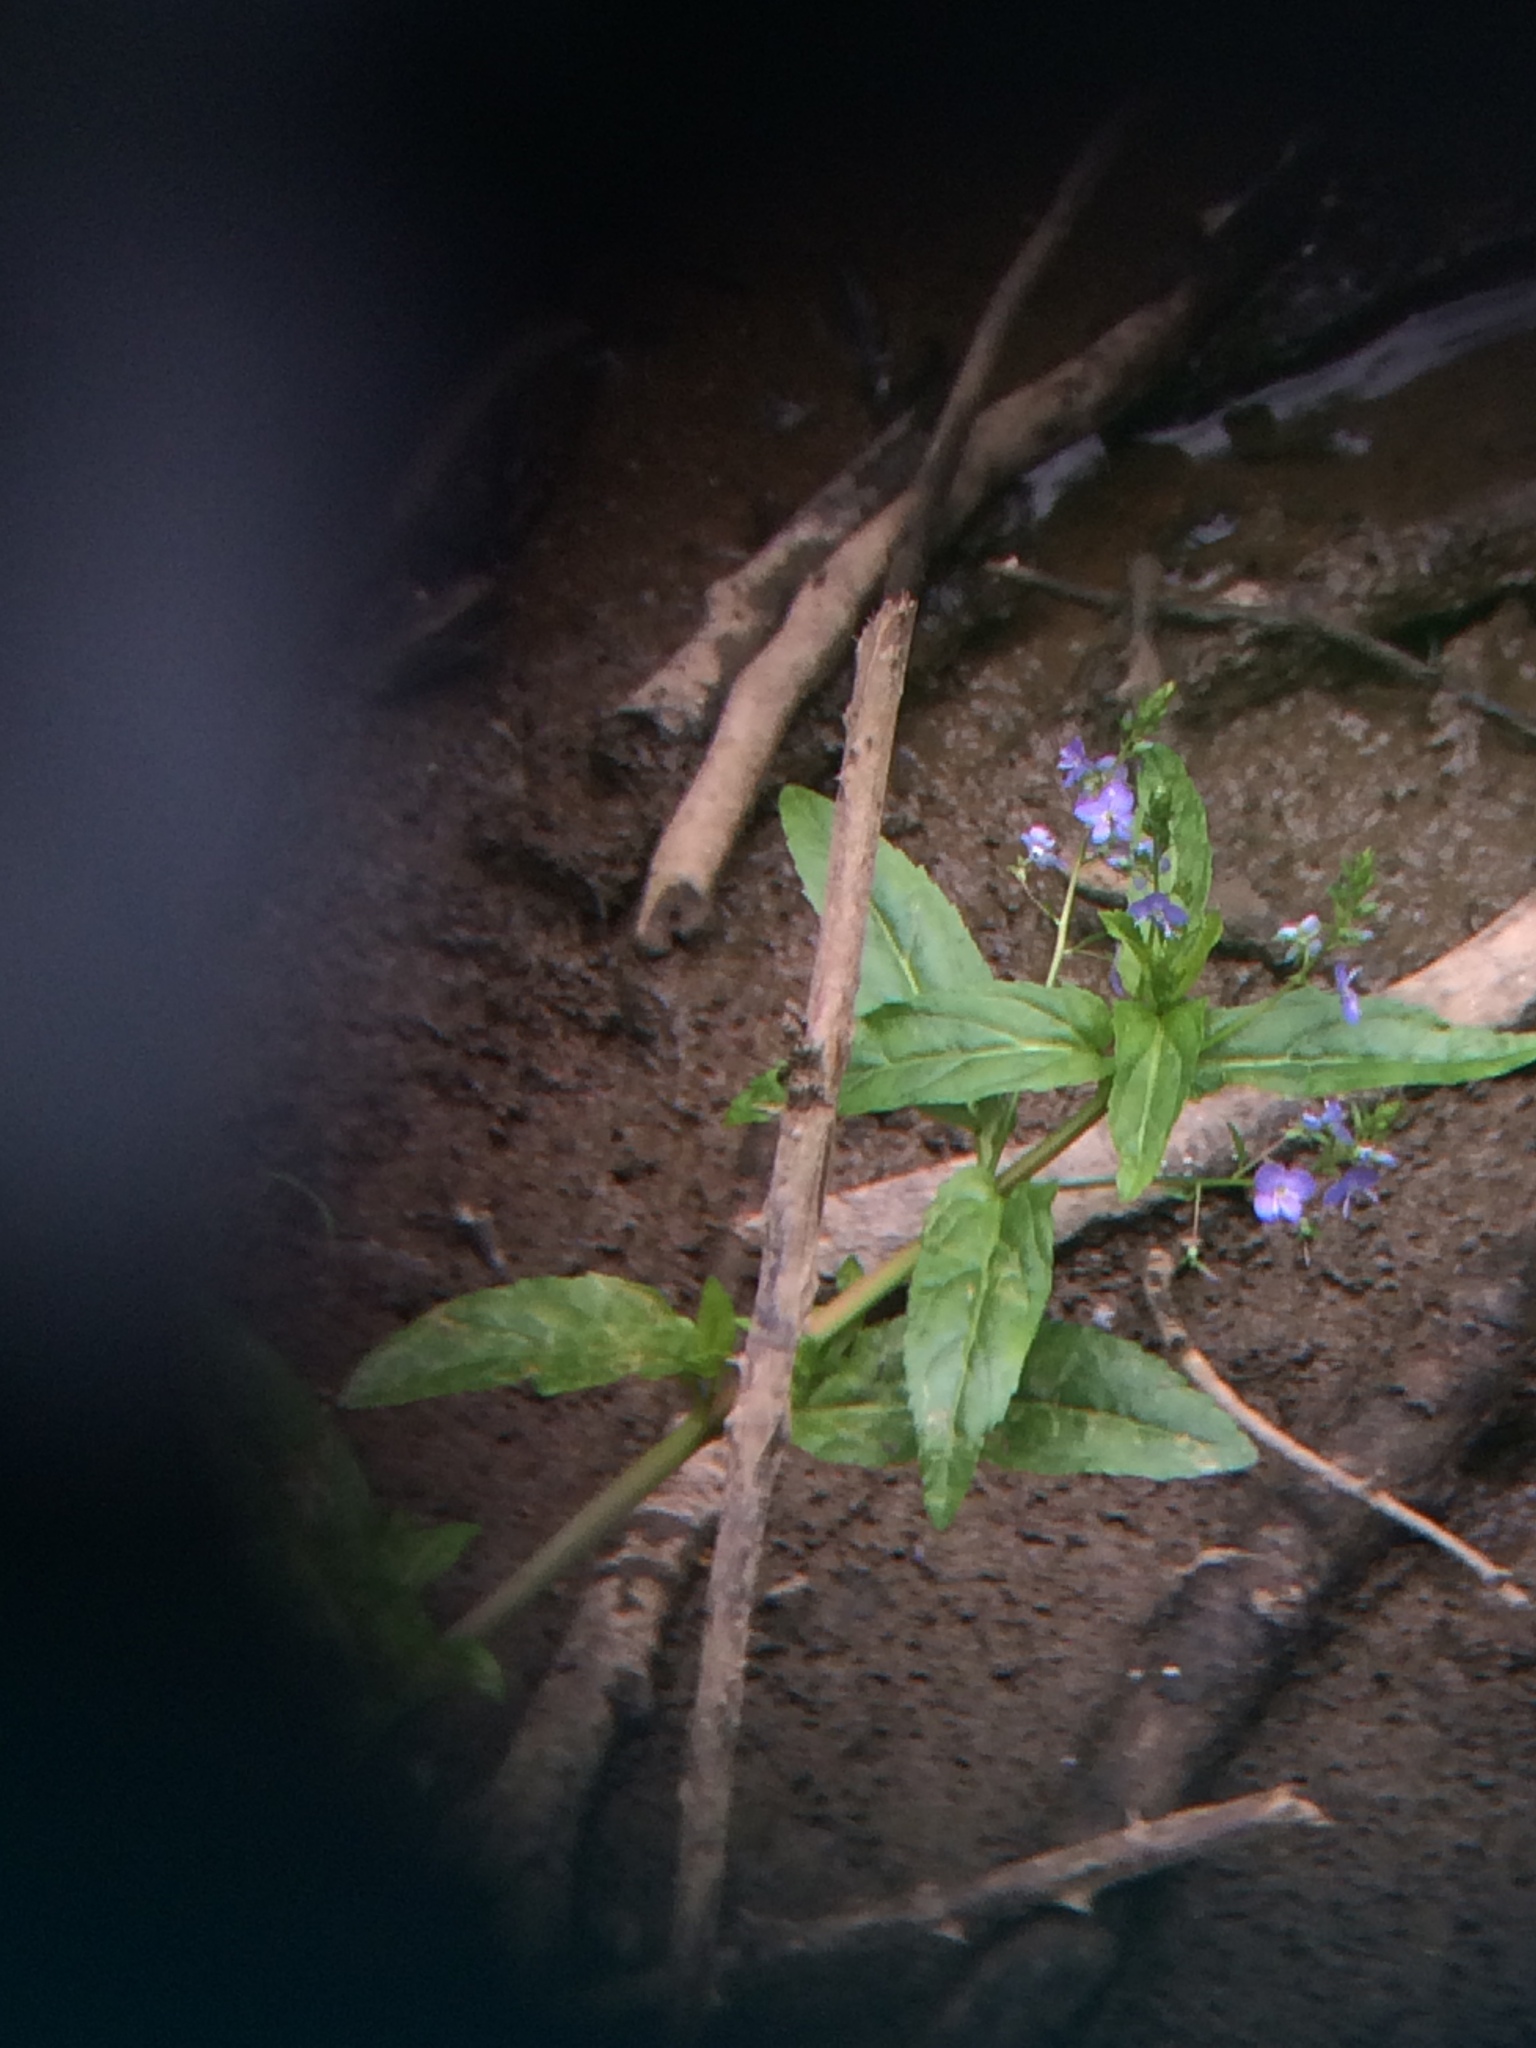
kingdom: Plantae
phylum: Tracheophyta
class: Magnoliopsida
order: Lamiales
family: Plantaginaceae
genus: Veronica
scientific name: Veronica americana
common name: American brooklime
